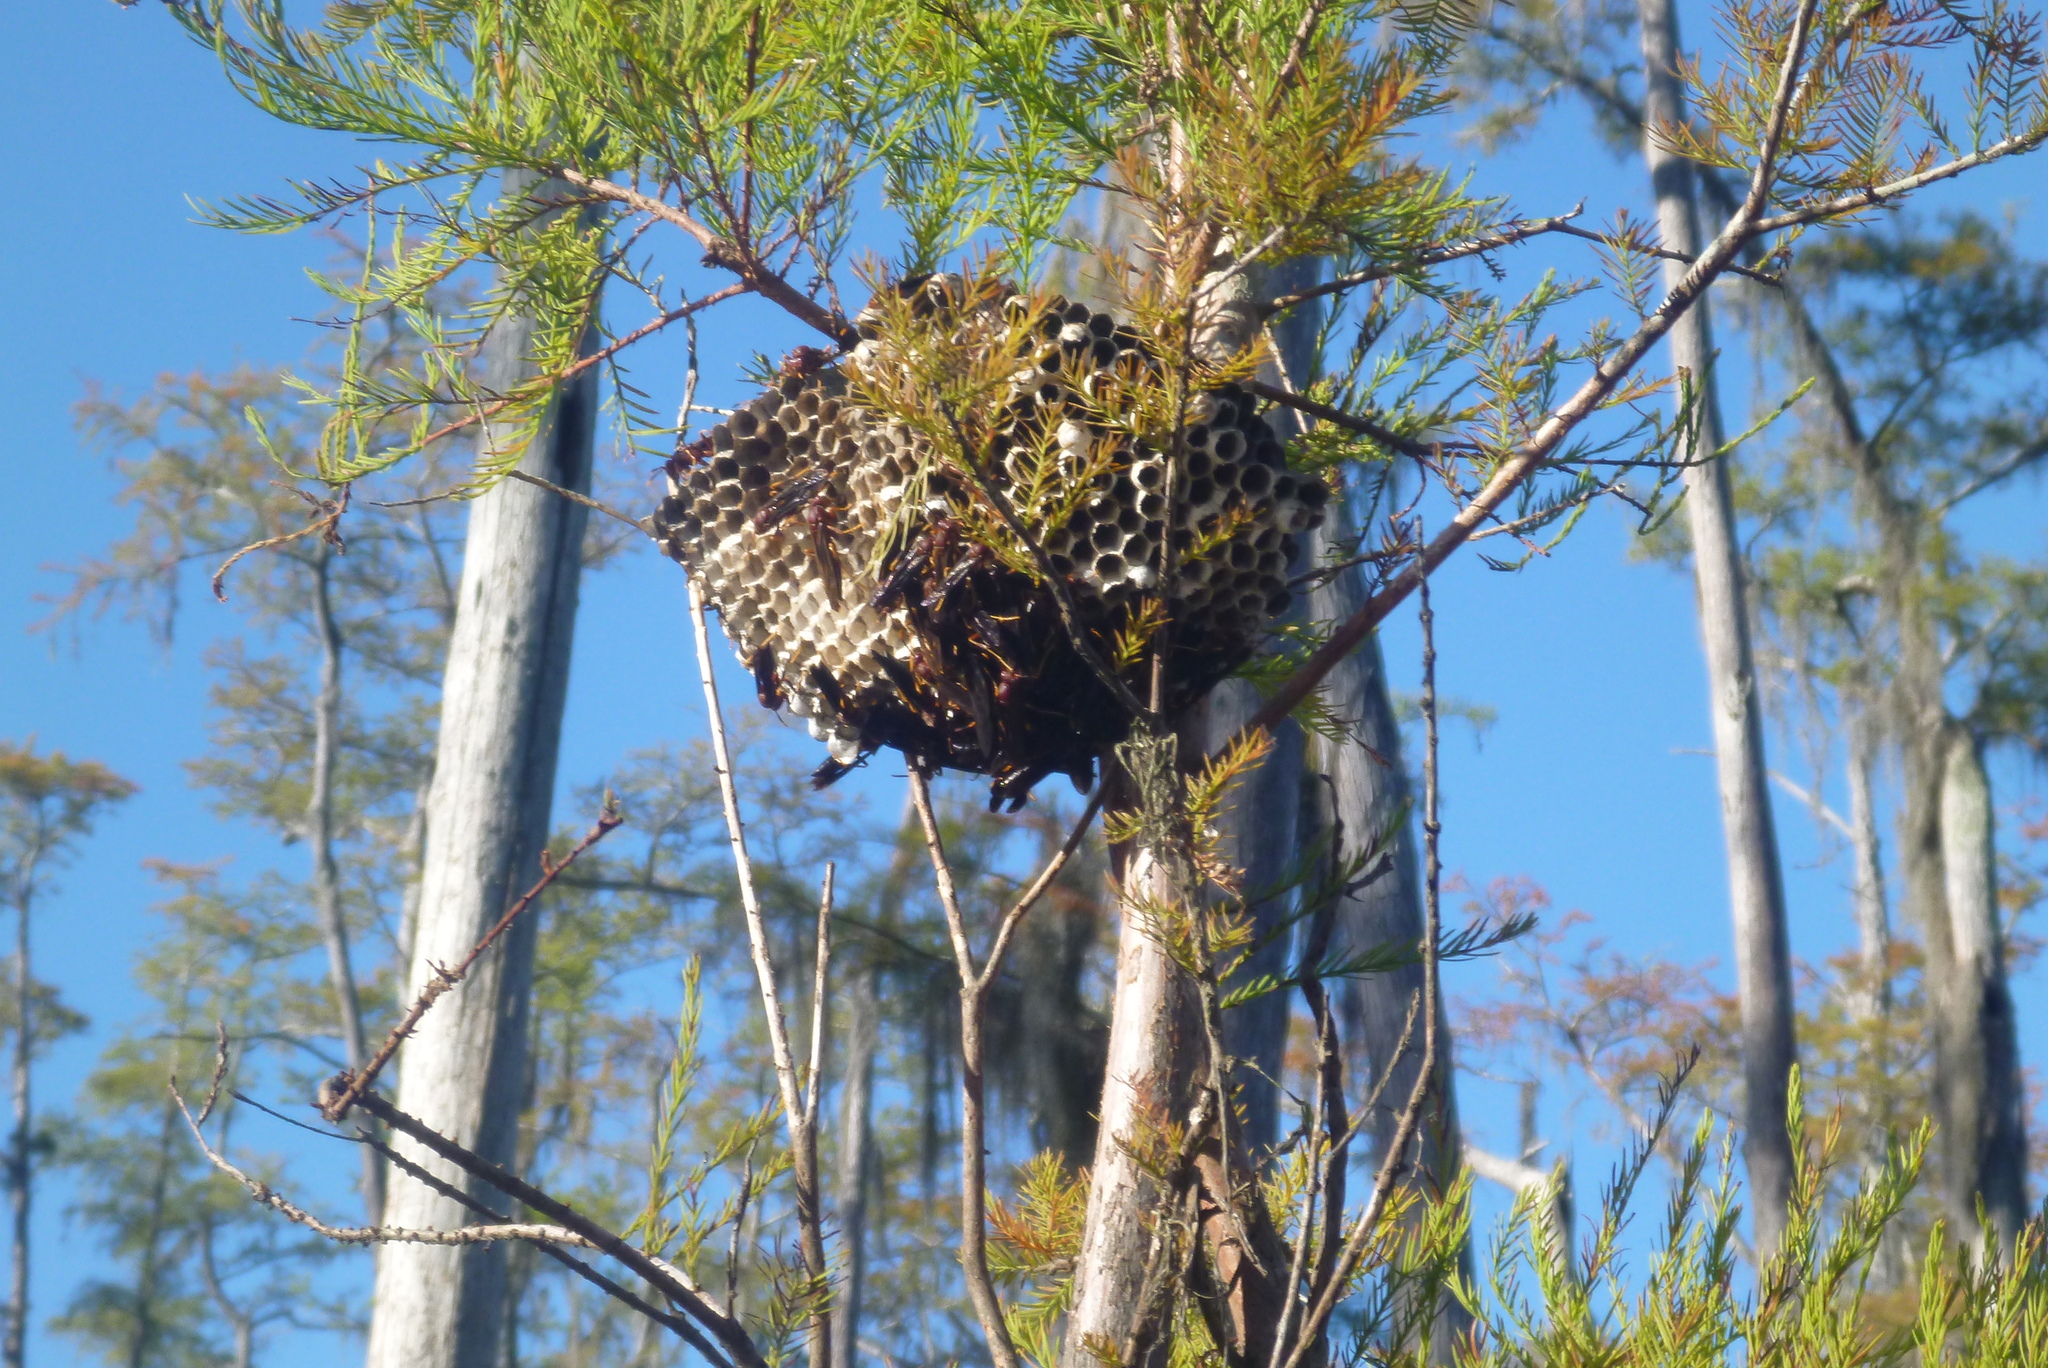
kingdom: Animalia
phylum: Arthropoda
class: Insecta
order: Hymenoptera
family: Eumenidae
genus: Polistes
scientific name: Polistes annularis
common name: Ringed paper wasp
